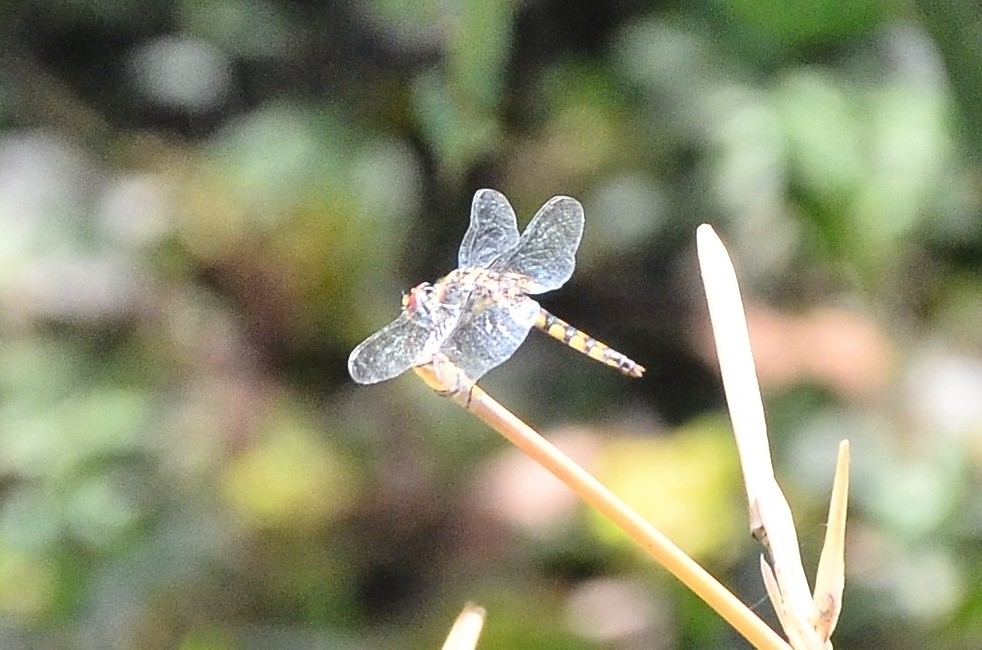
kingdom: Animalia
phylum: Arthropoda
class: Insecta
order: Odonata
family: Libellulidae
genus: Urothemis
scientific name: Urothemis signata
